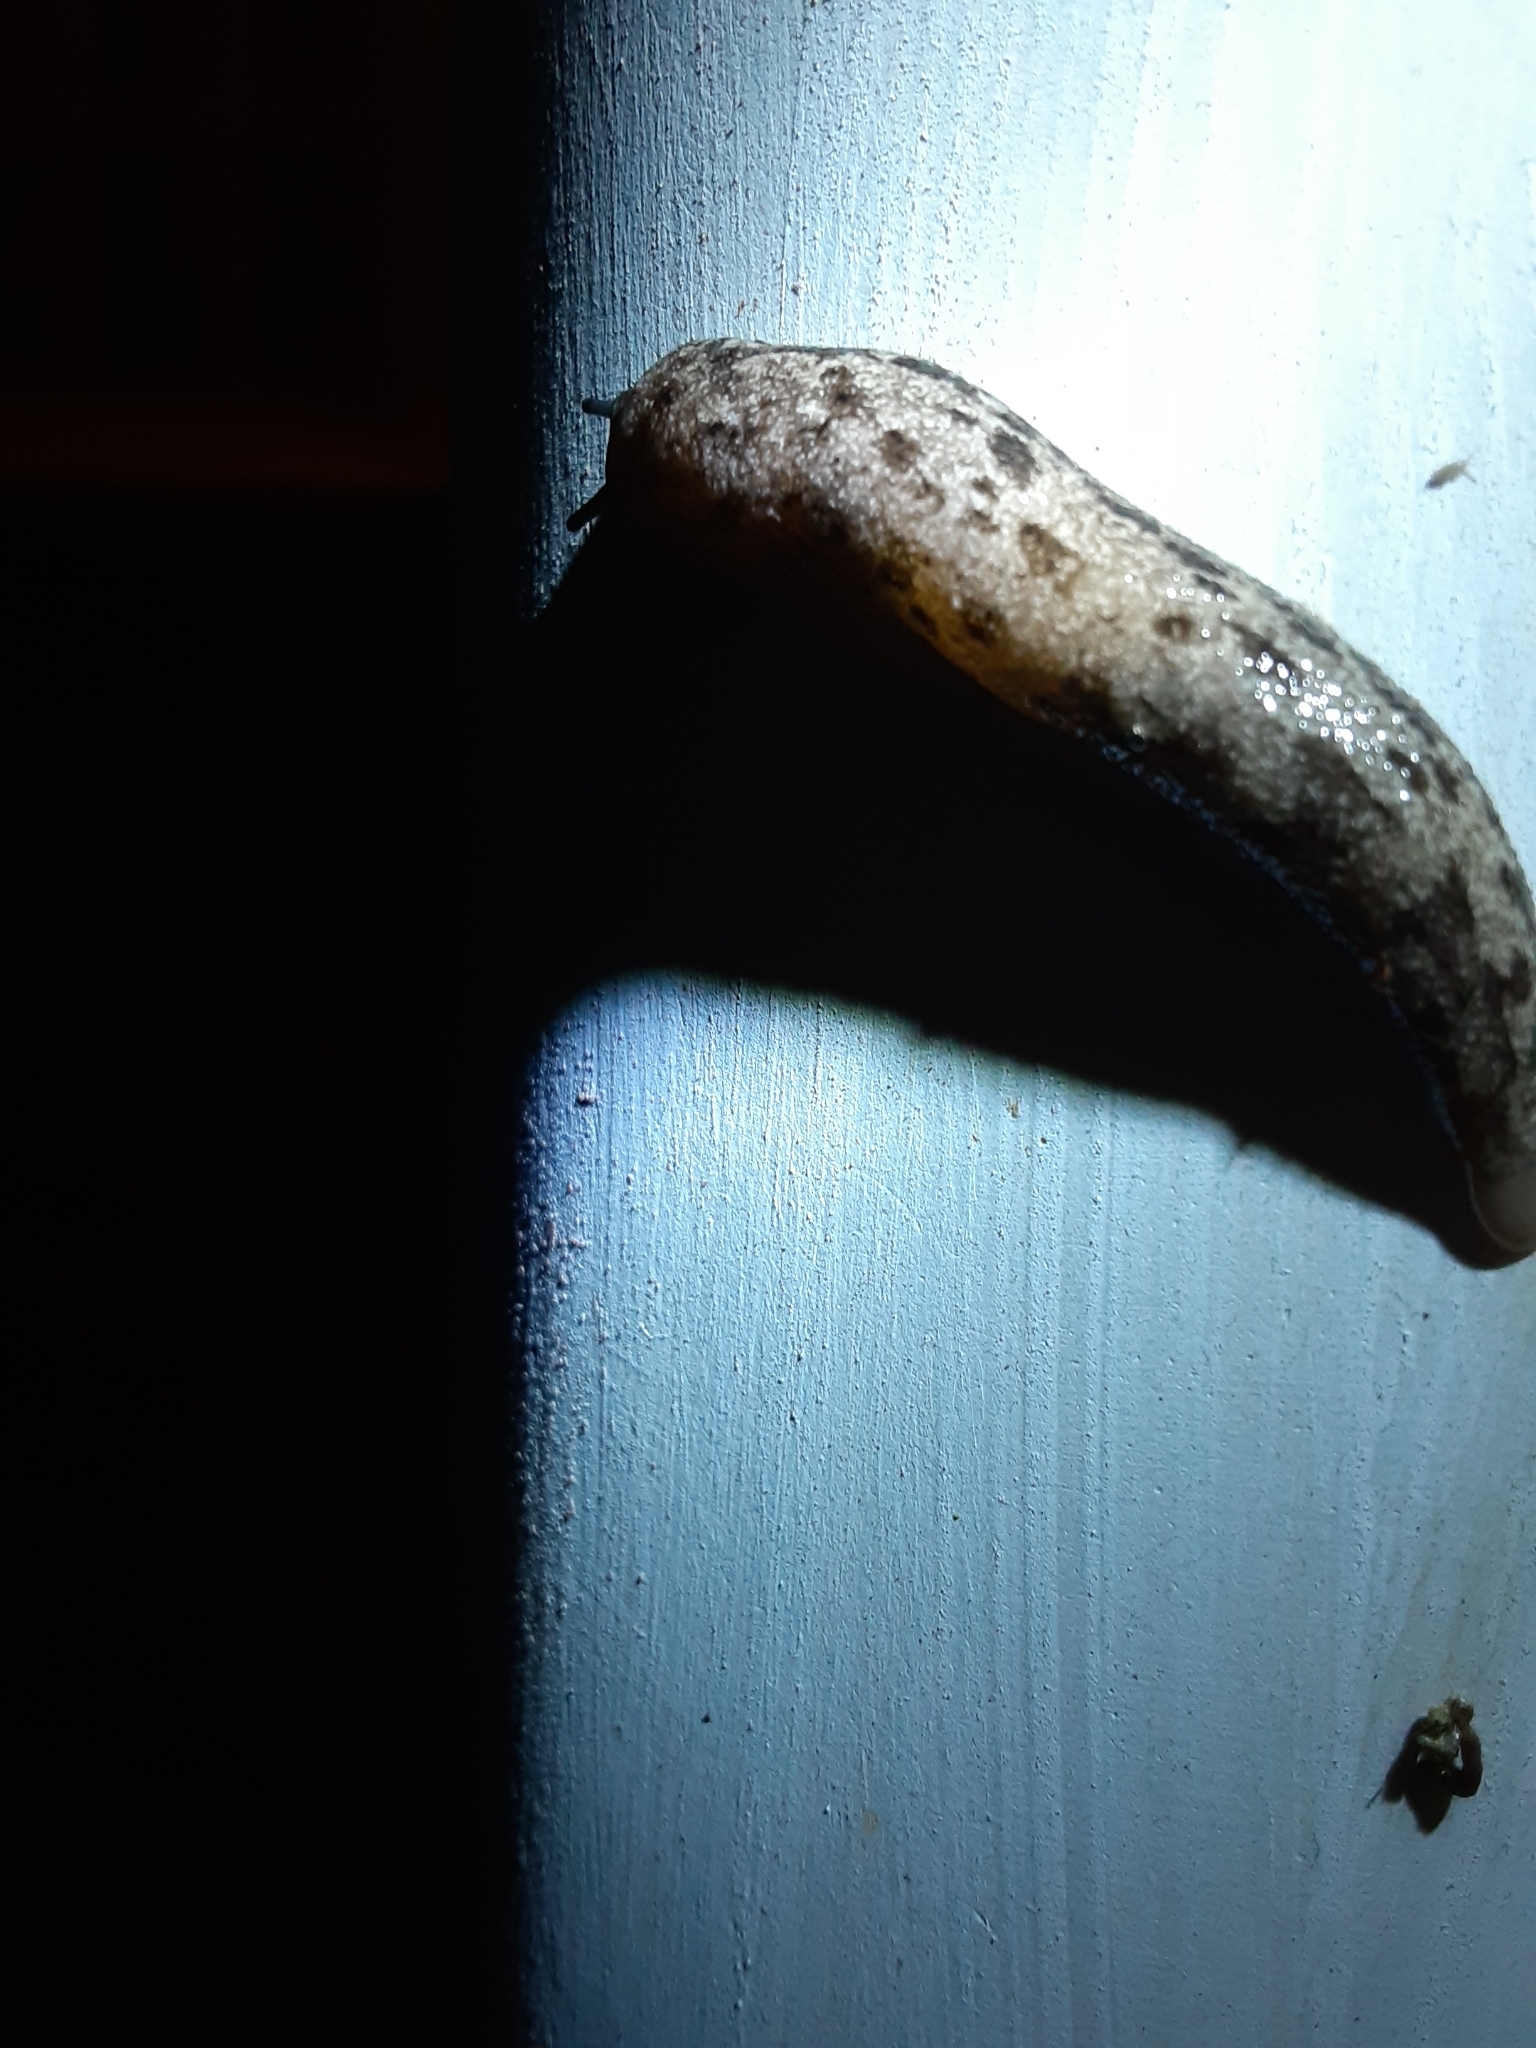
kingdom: Animalia
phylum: Mollusca
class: Gastropoda
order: Stylommatophora
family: Philomycidae
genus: Megapallifera
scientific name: Megapallifera mutabilis
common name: Changeable mantleslug
